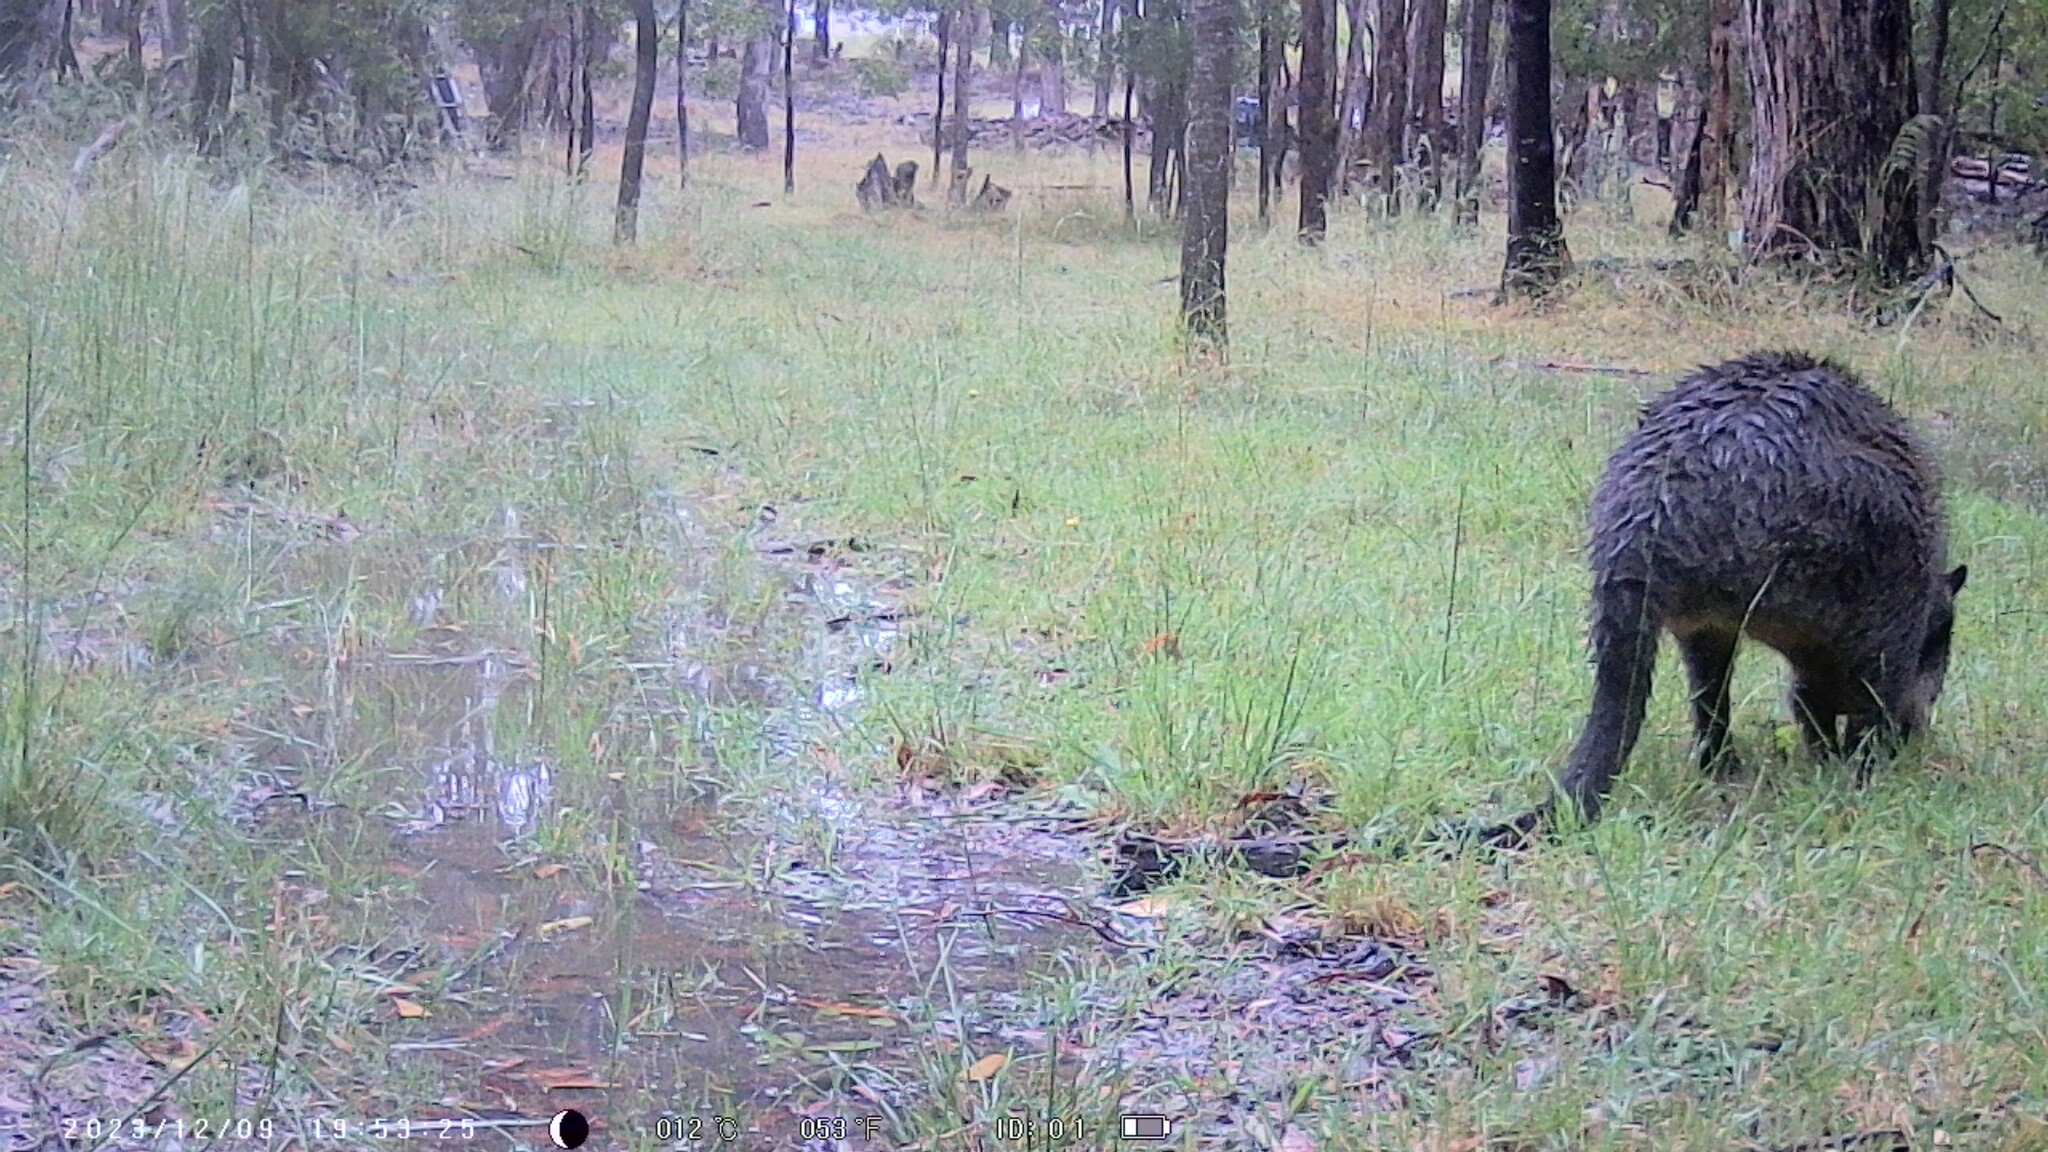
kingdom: Animalia
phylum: Chordata
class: Mammalia
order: Diprotodontia
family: Macropodidae
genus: Wallabia
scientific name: Wallabia bicolor
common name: Swamp wallaby
